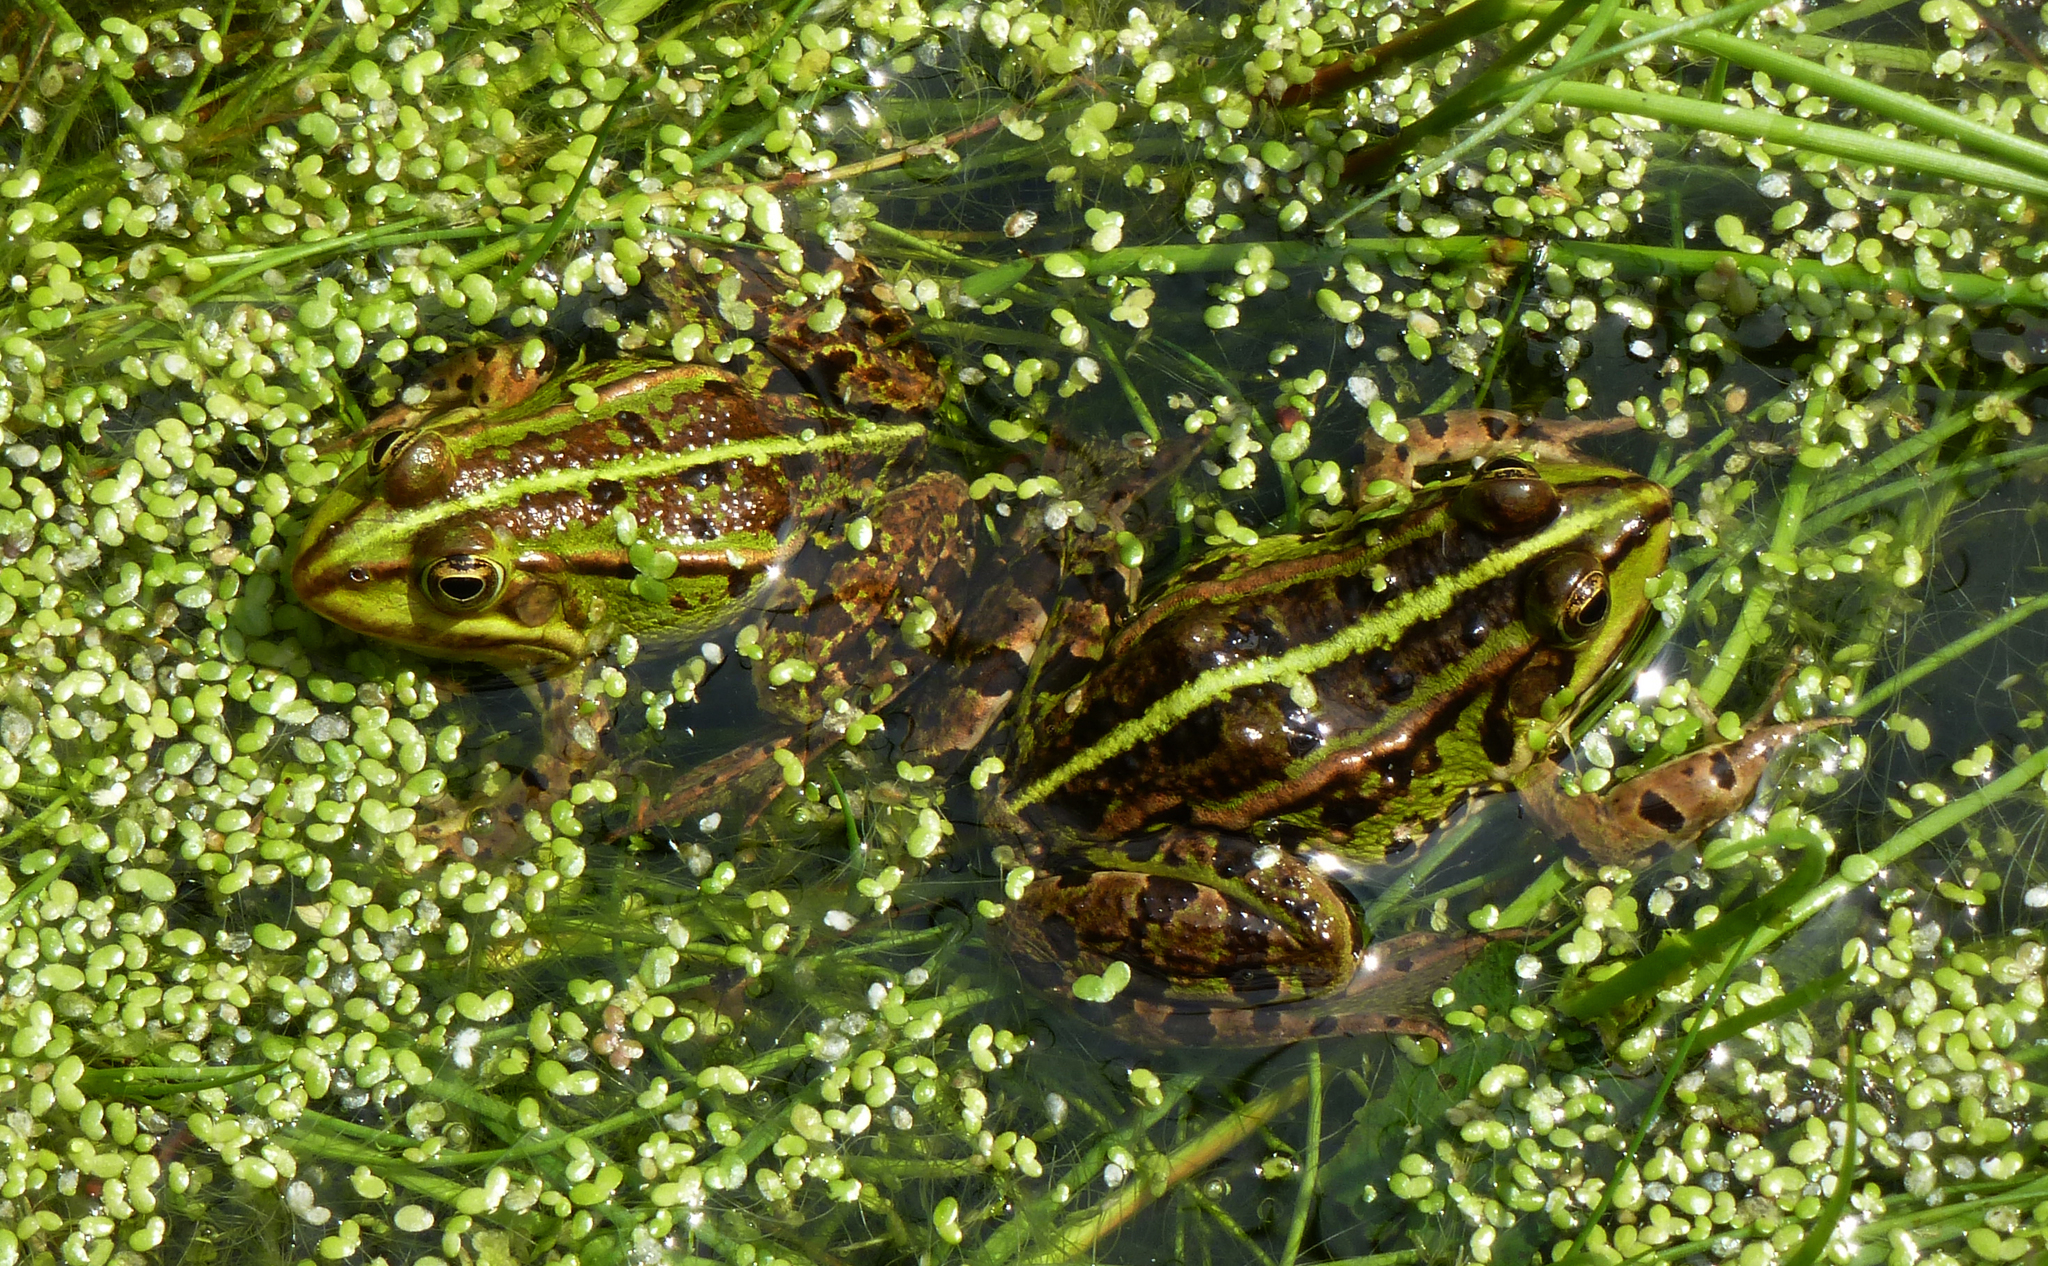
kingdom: Animalia
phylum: Chordata
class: Amphibia
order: Anura
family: Ranidae
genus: Pelophylax
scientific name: Pelophylax
